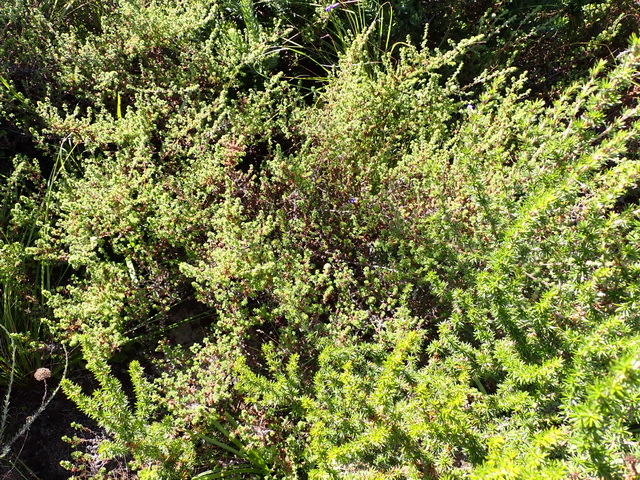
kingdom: Plantae
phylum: Tracheophyta
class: Magnoliopsida
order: Rosales
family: Rosaceae
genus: Cliffortia
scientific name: Cliffortia filicaulis
